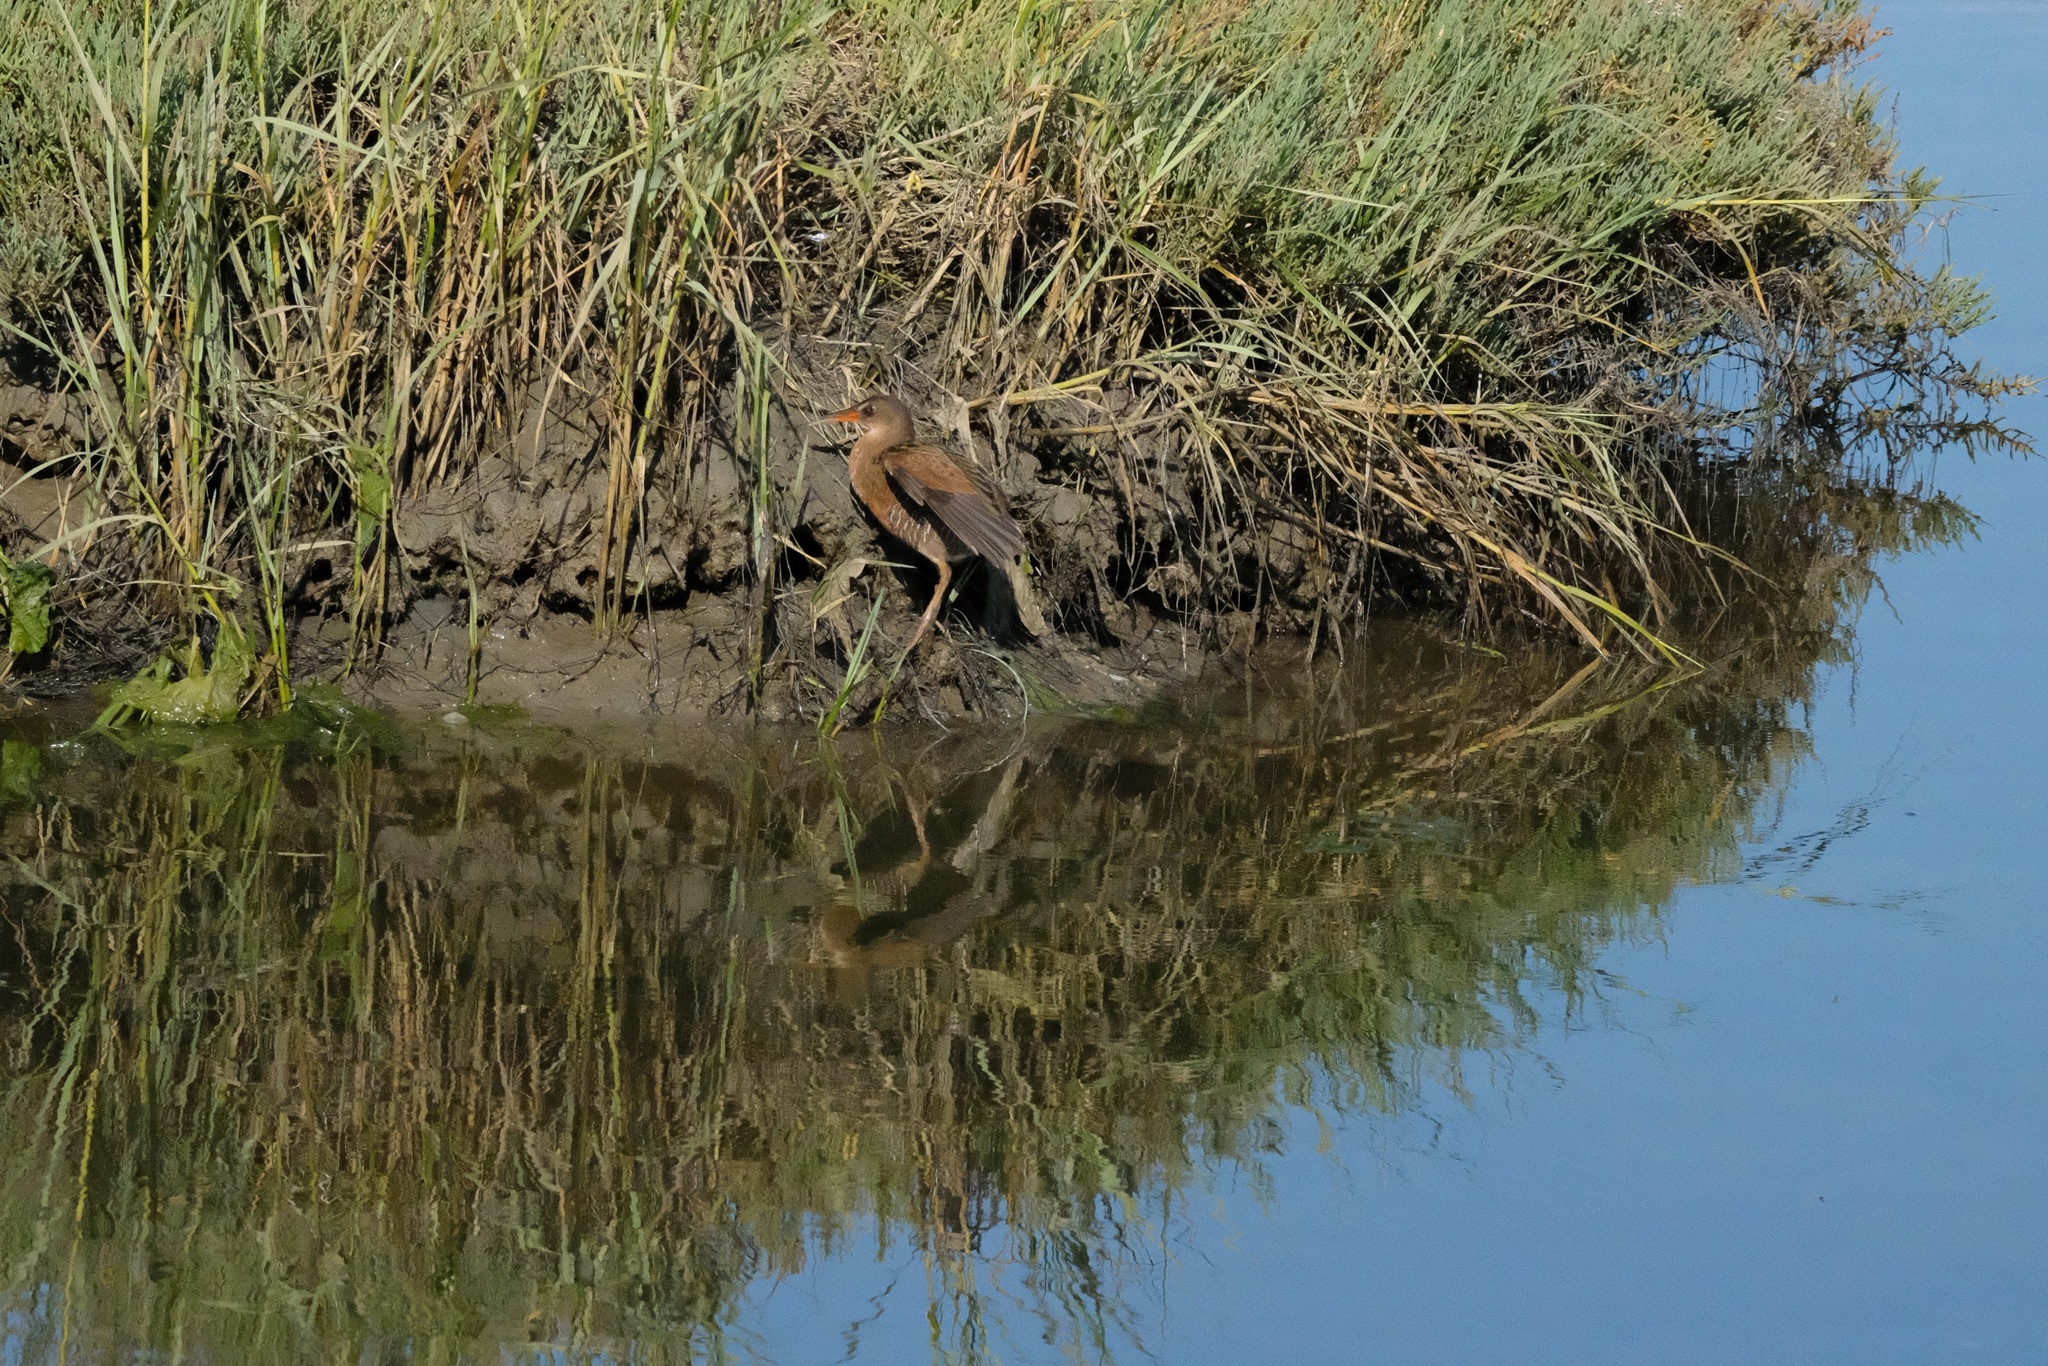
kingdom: Animalia
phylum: Chordata
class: Aves
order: Gruiformes
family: Rallidae
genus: Rallus
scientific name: Rallus obsoletus
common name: Ridgway's rail
